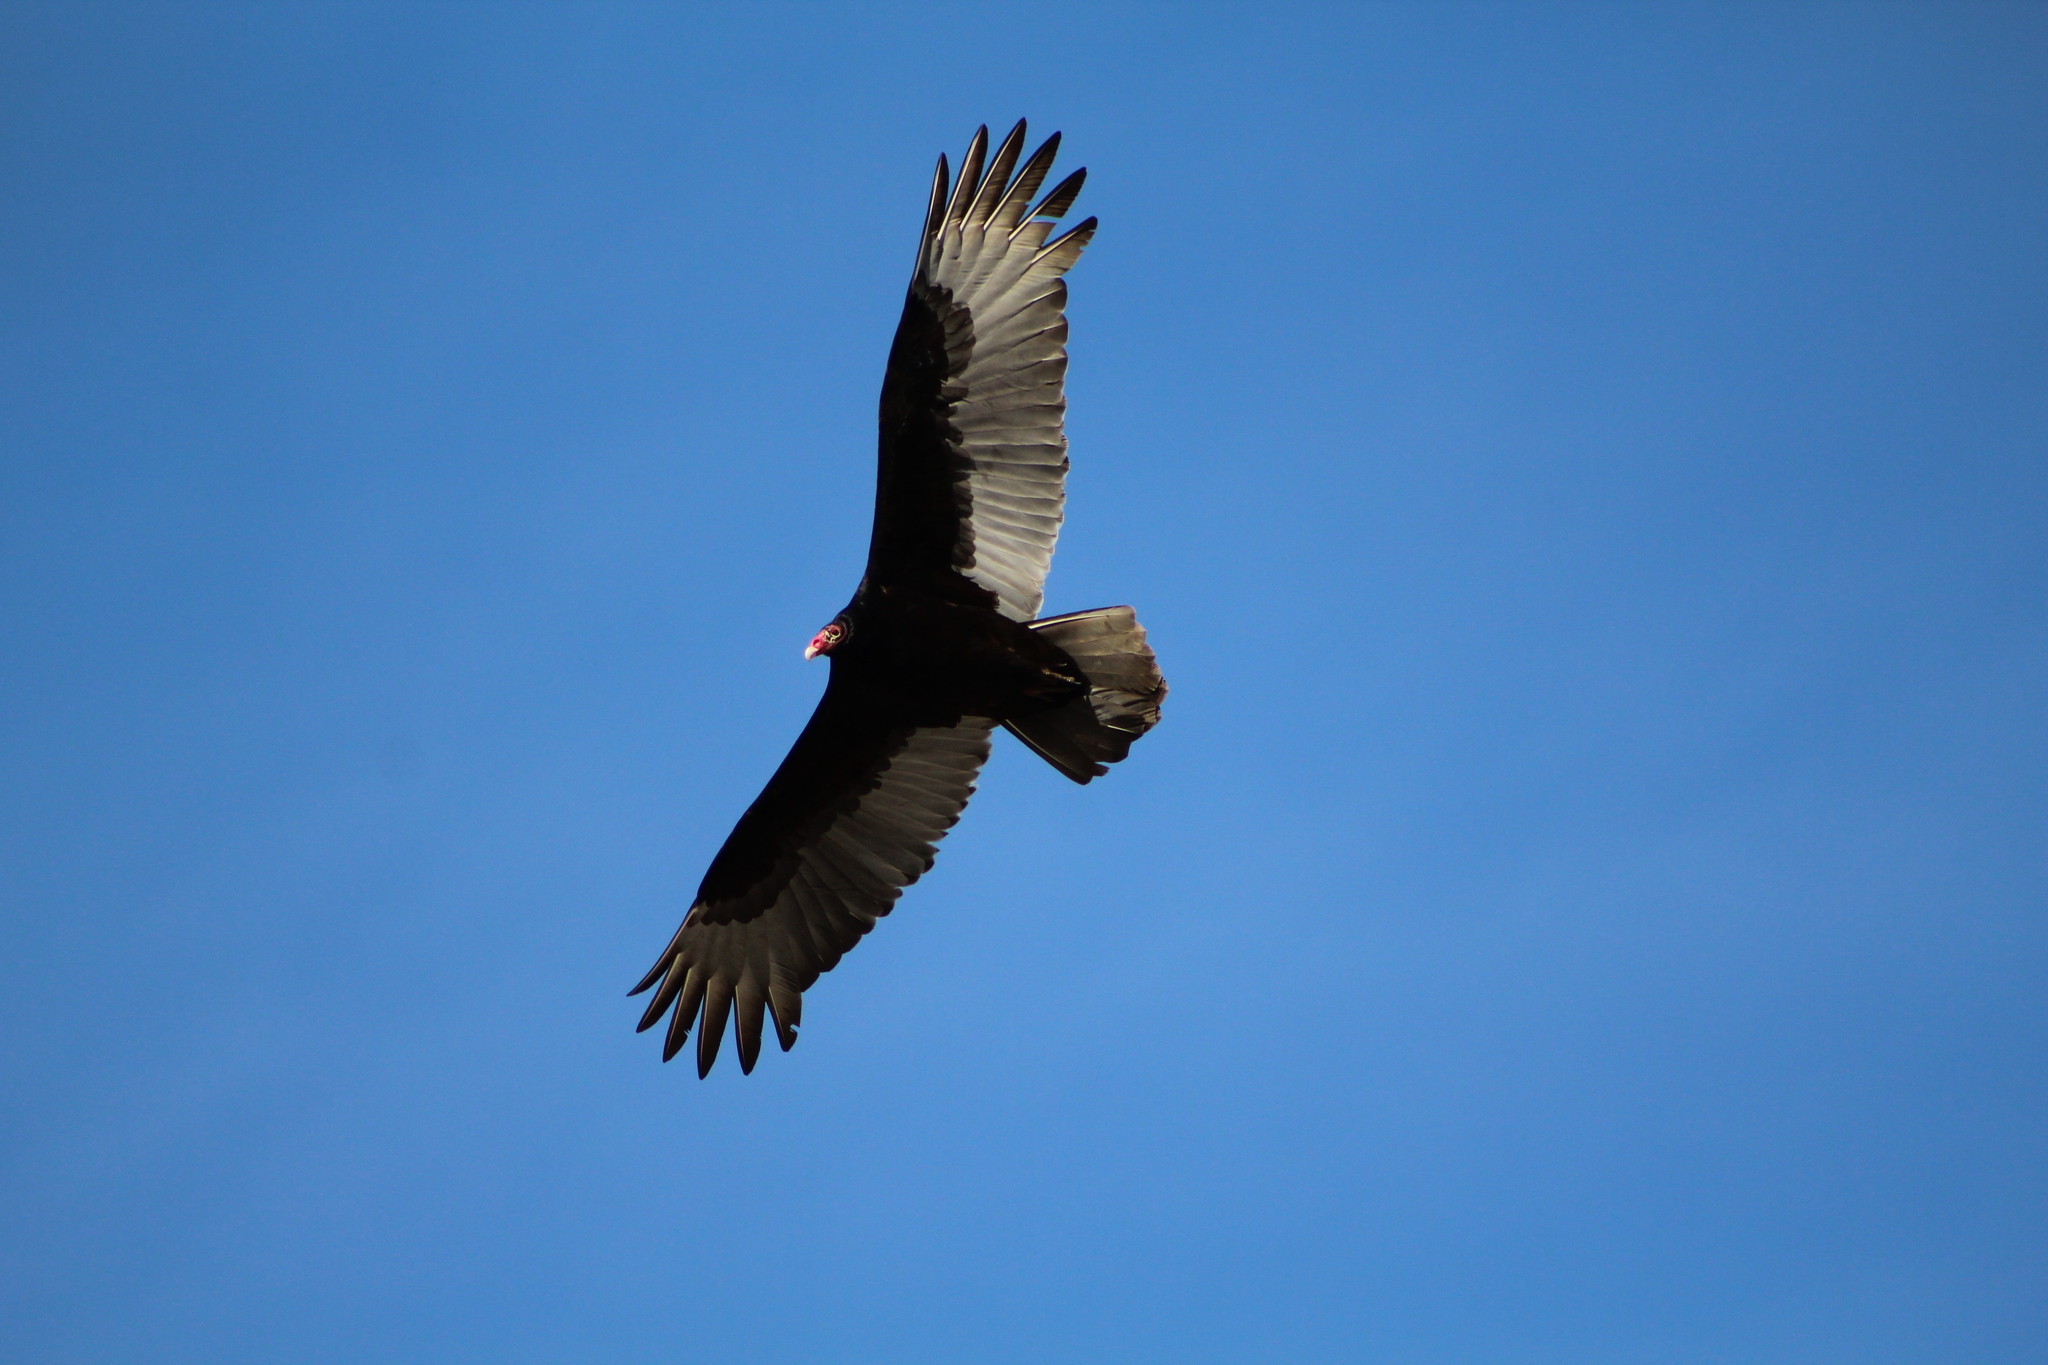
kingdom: Animalia
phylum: Chordata
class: Aves
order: Accipitriformes
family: Cathartidae
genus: Cathartes
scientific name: Cathartes aura
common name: Turkey vulture
